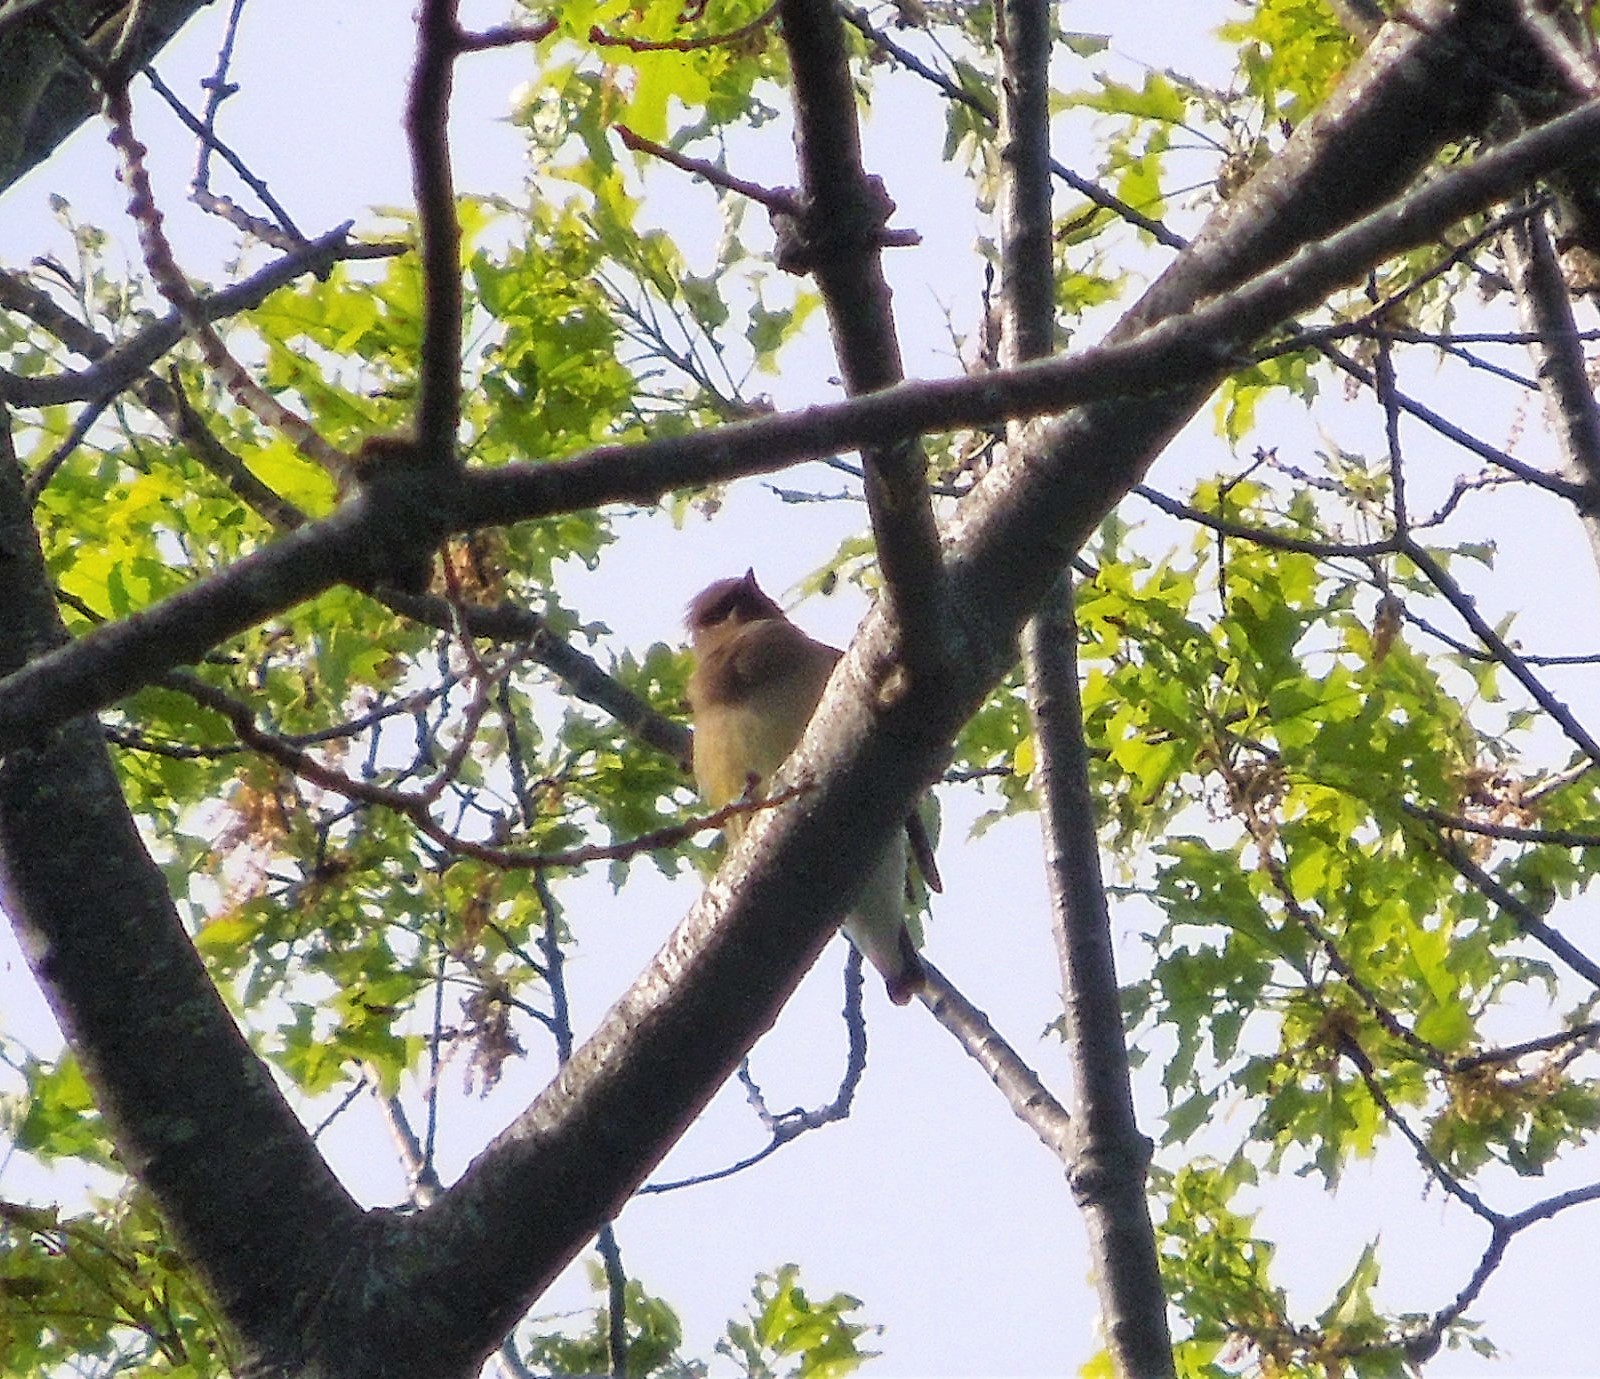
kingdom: Animalia
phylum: Chordata
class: Aves
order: Passeriformes
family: Bombycillidae
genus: Bombycilla
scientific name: Bombycilla cedrorum
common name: Cedar waxwing
